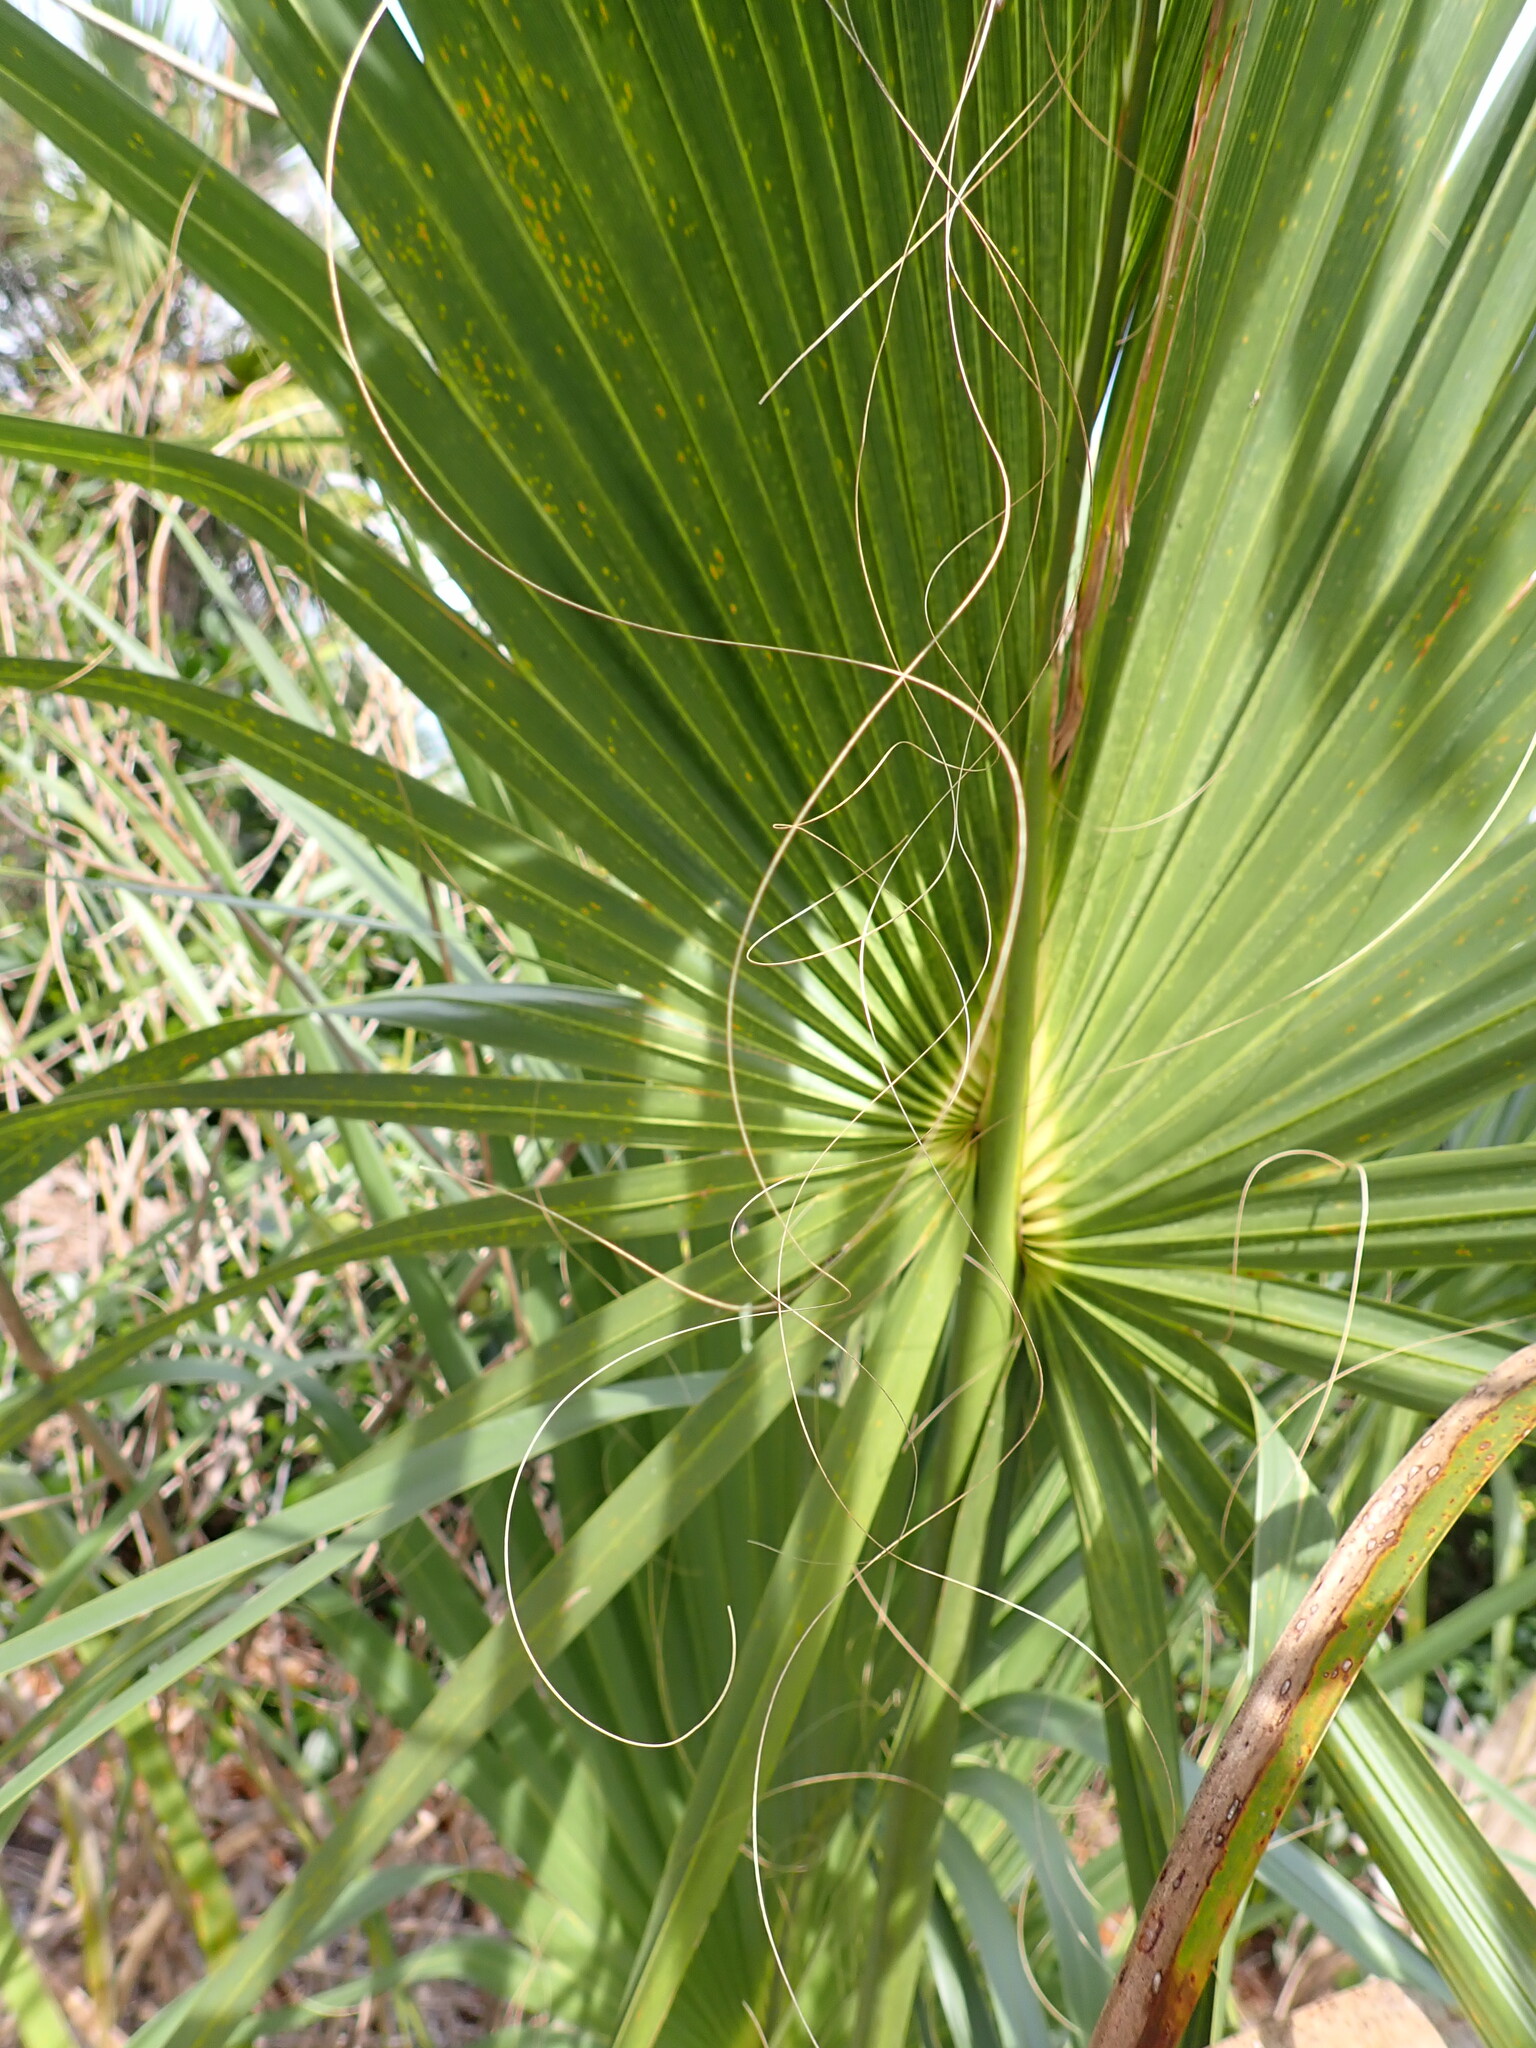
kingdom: Plantae
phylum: Tracheophyta
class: Liliopsida
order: Arecales
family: Arecaceae
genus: Sabal
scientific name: Sabal palmetto
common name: Blue palmetto
